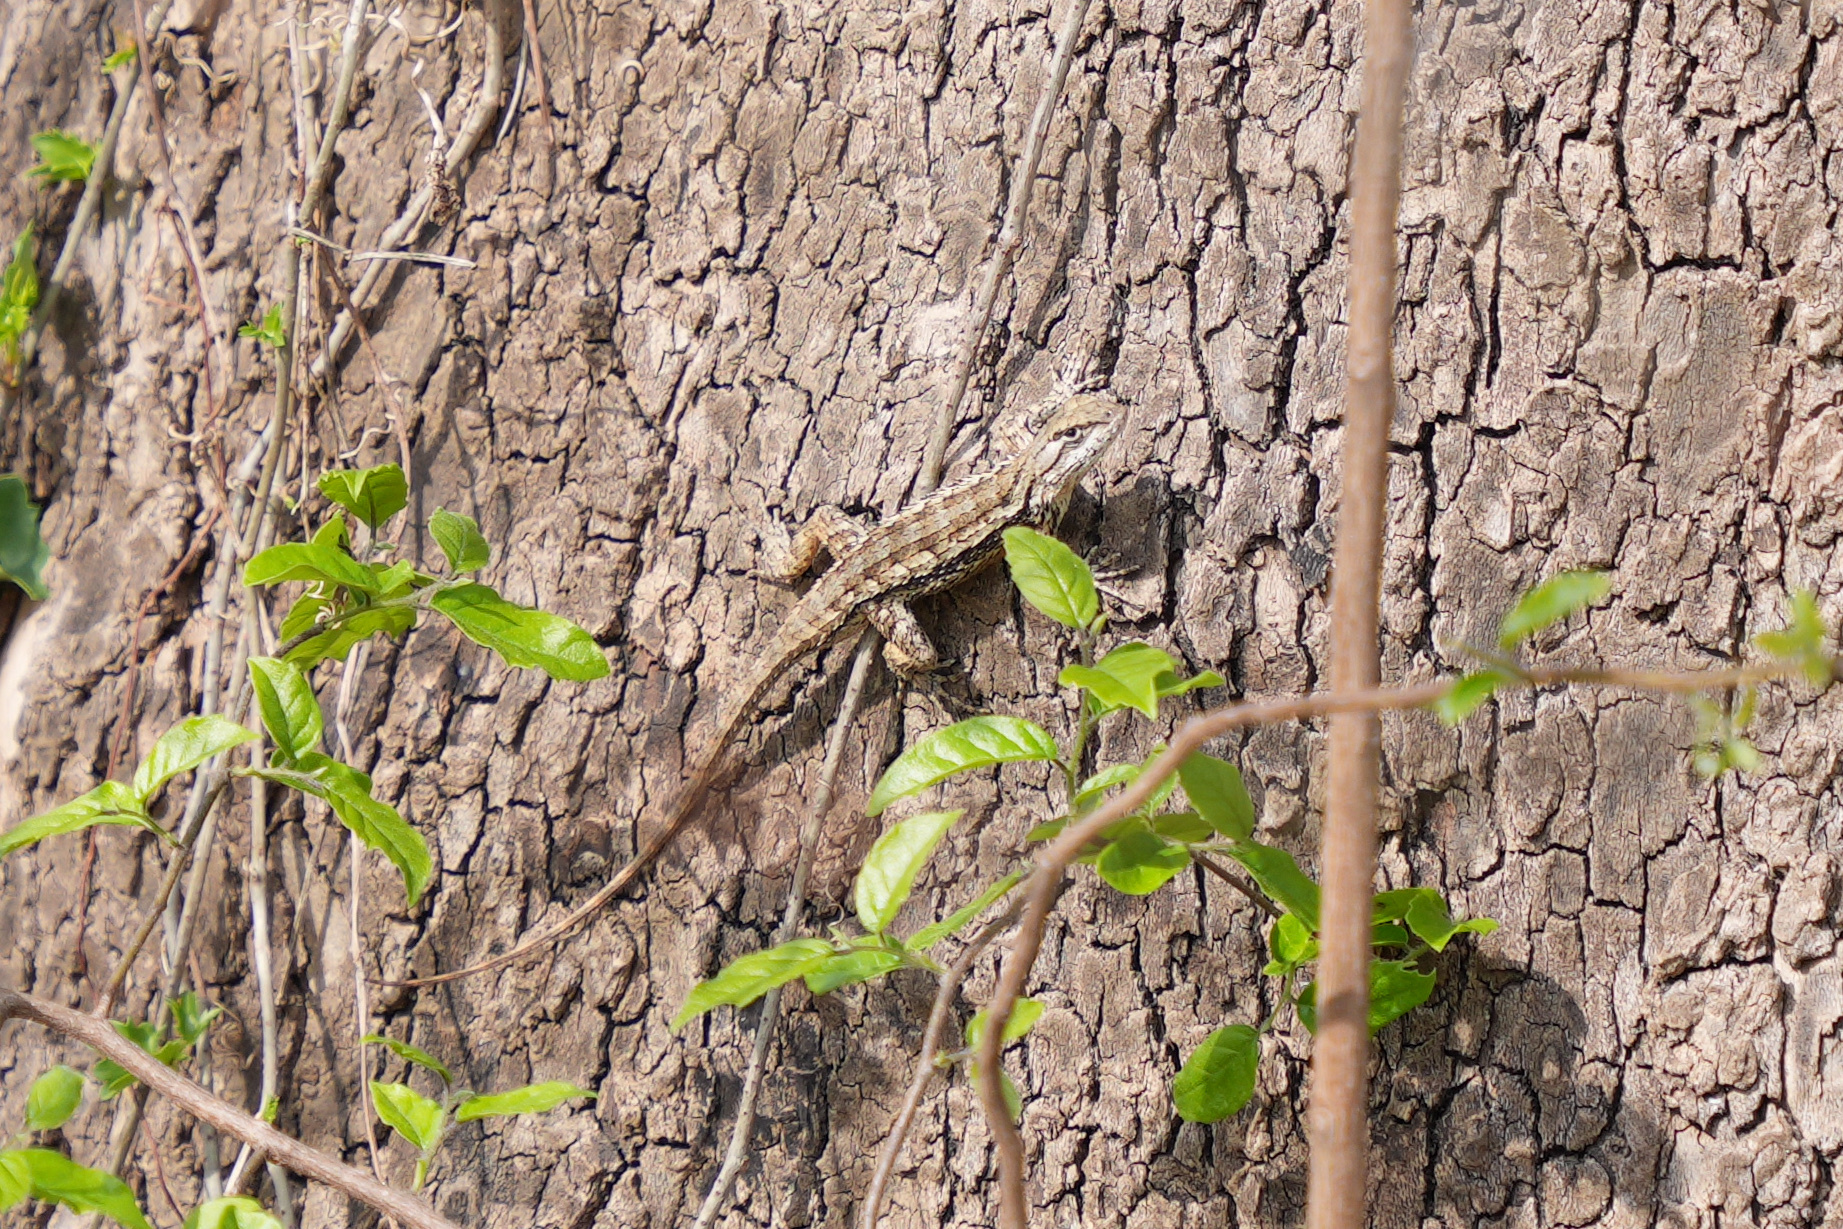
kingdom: Animalia
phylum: Chordata
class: Squamata
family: Phrynosomatidae
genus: Sceloporus
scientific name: Sceloporus olivaceus
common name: Texas spiny lizard
